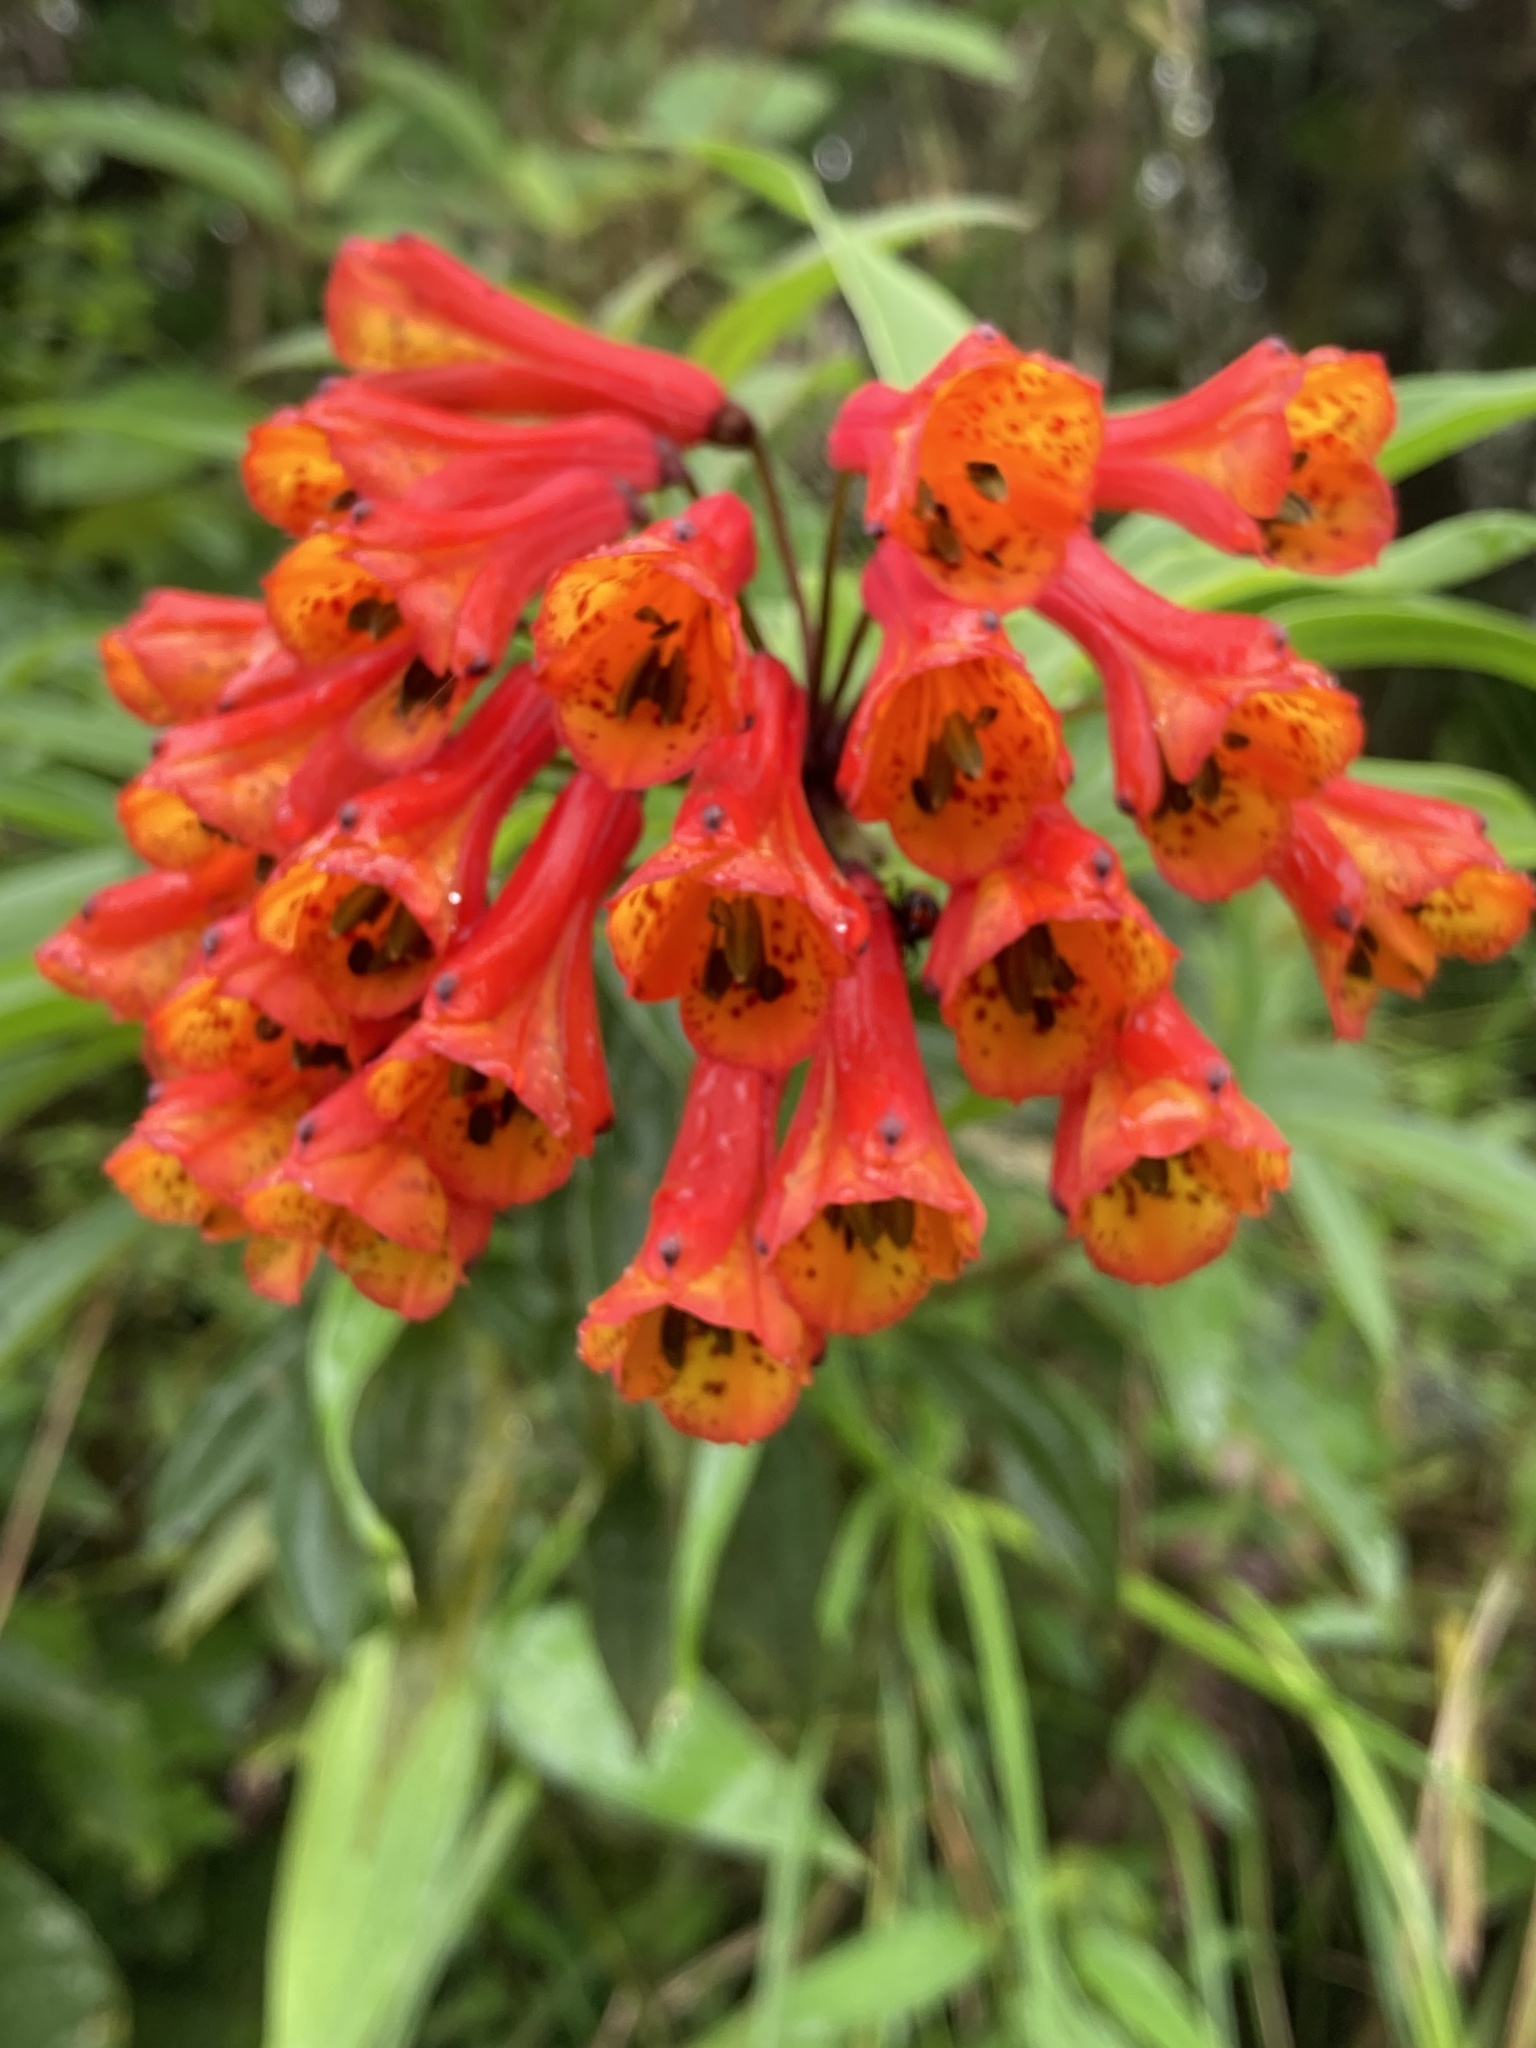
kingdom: Plantae
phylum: Tracheophyta
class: Liliopsida
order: Liliales
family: Alstroemeriaceae
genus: Bomarea
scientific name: Bomarea acutifolia
